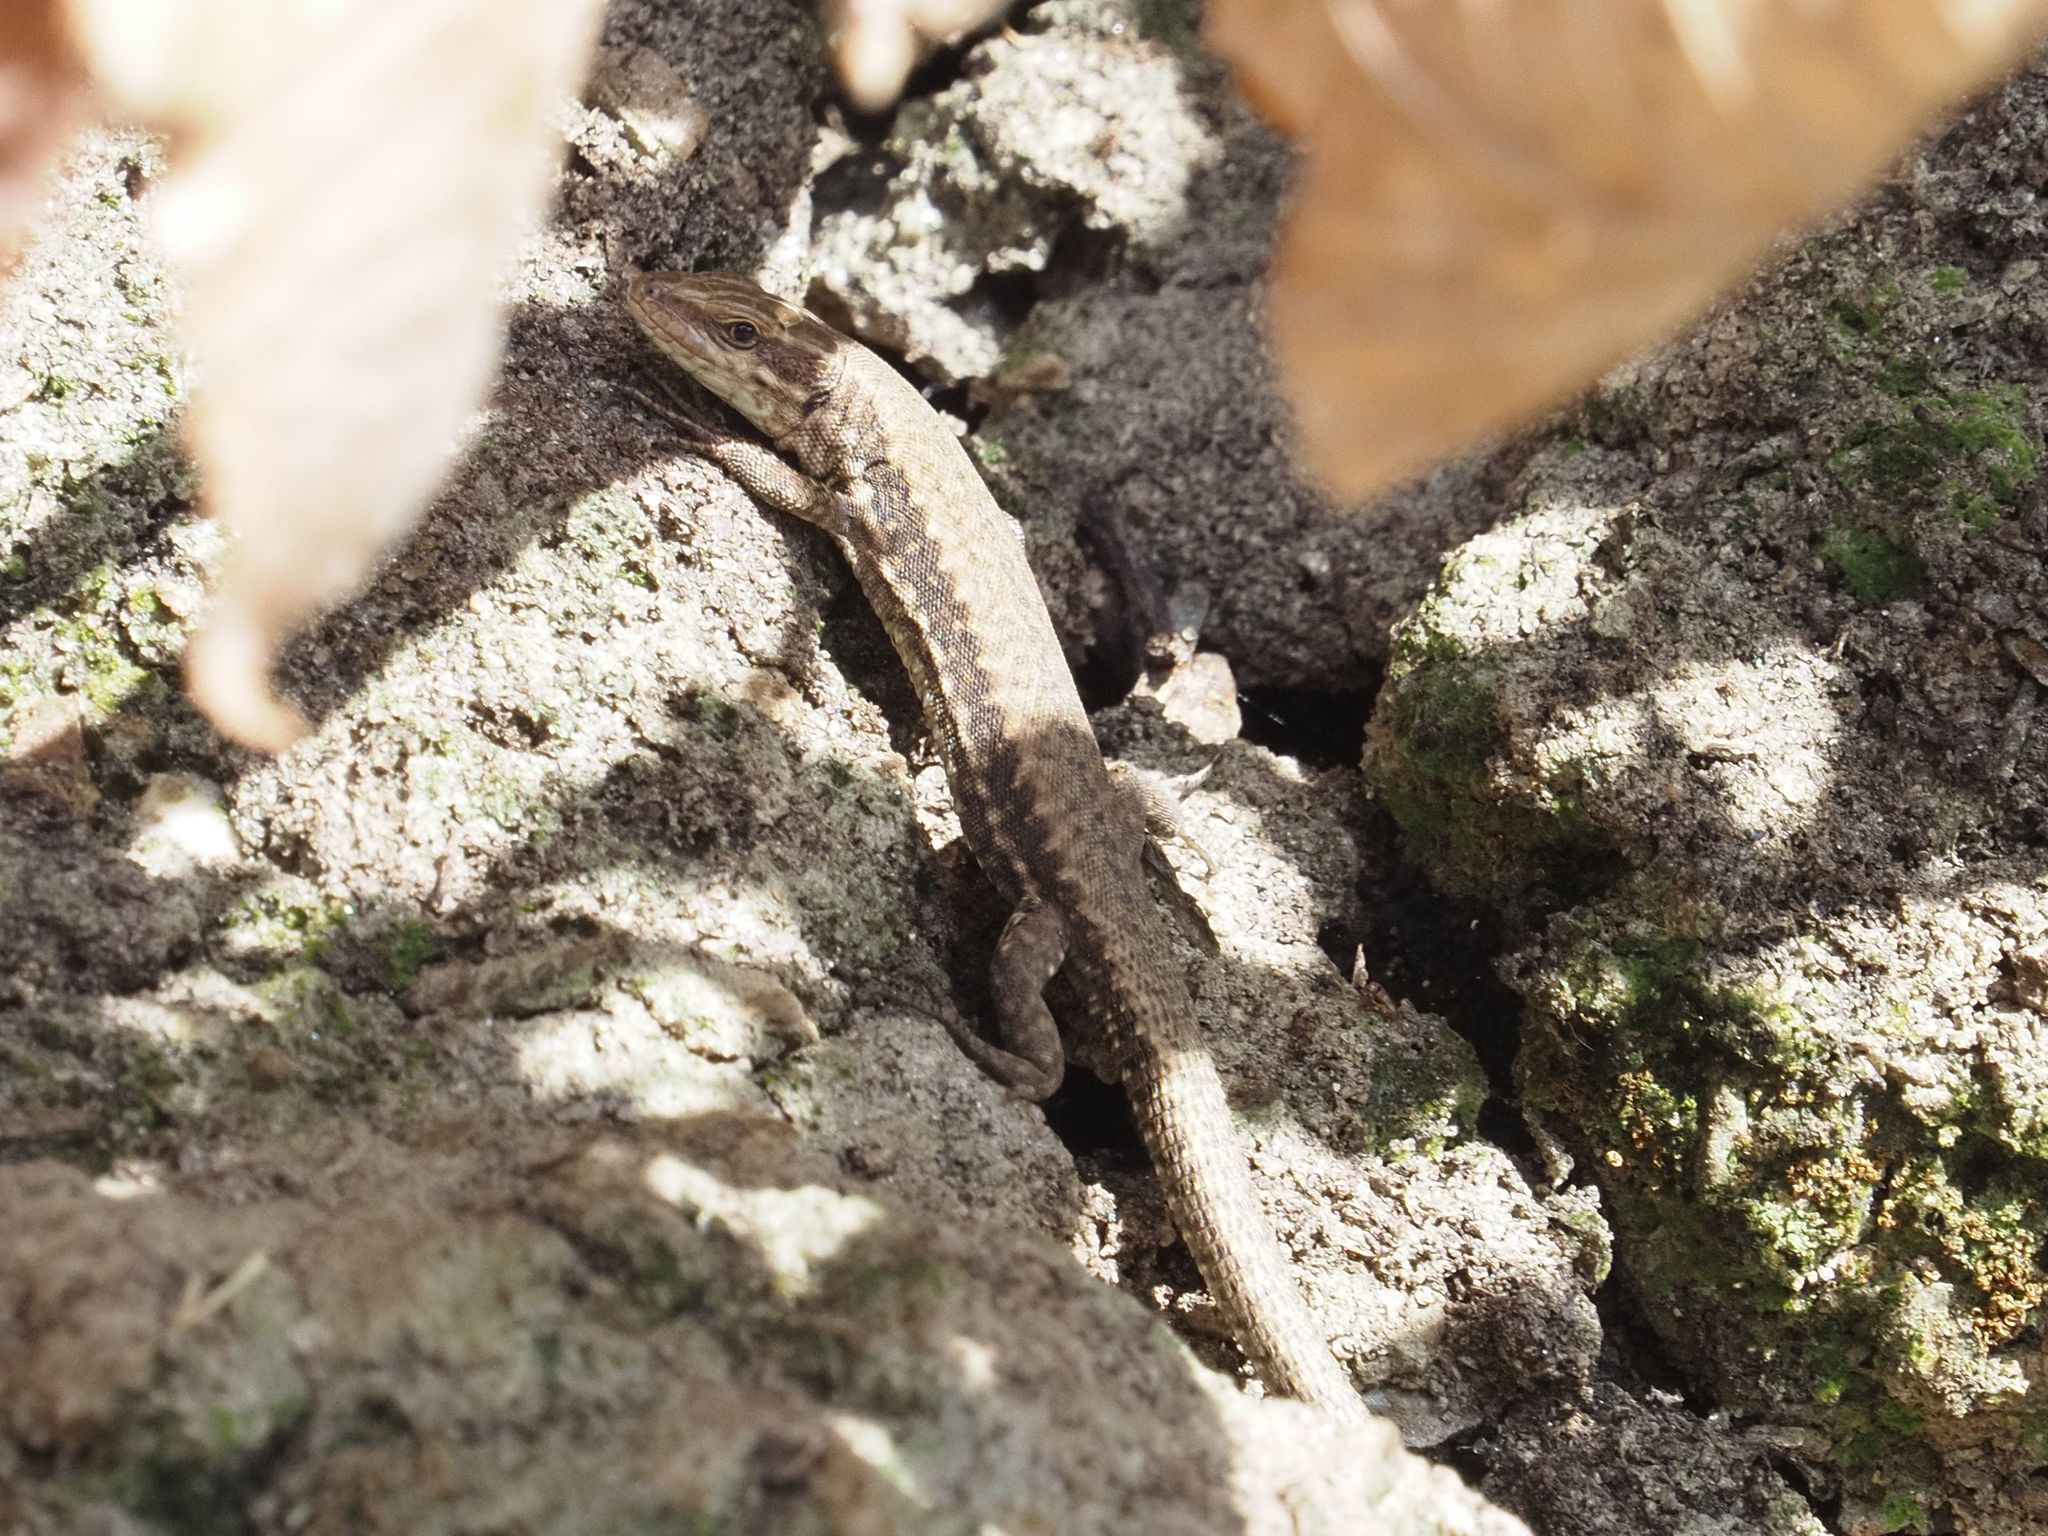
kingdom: Animalia
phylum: Chordata
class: Squamata
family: Lacertidae
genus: Podarcis
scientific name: Podarcis muralis
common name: Common wall lizard
